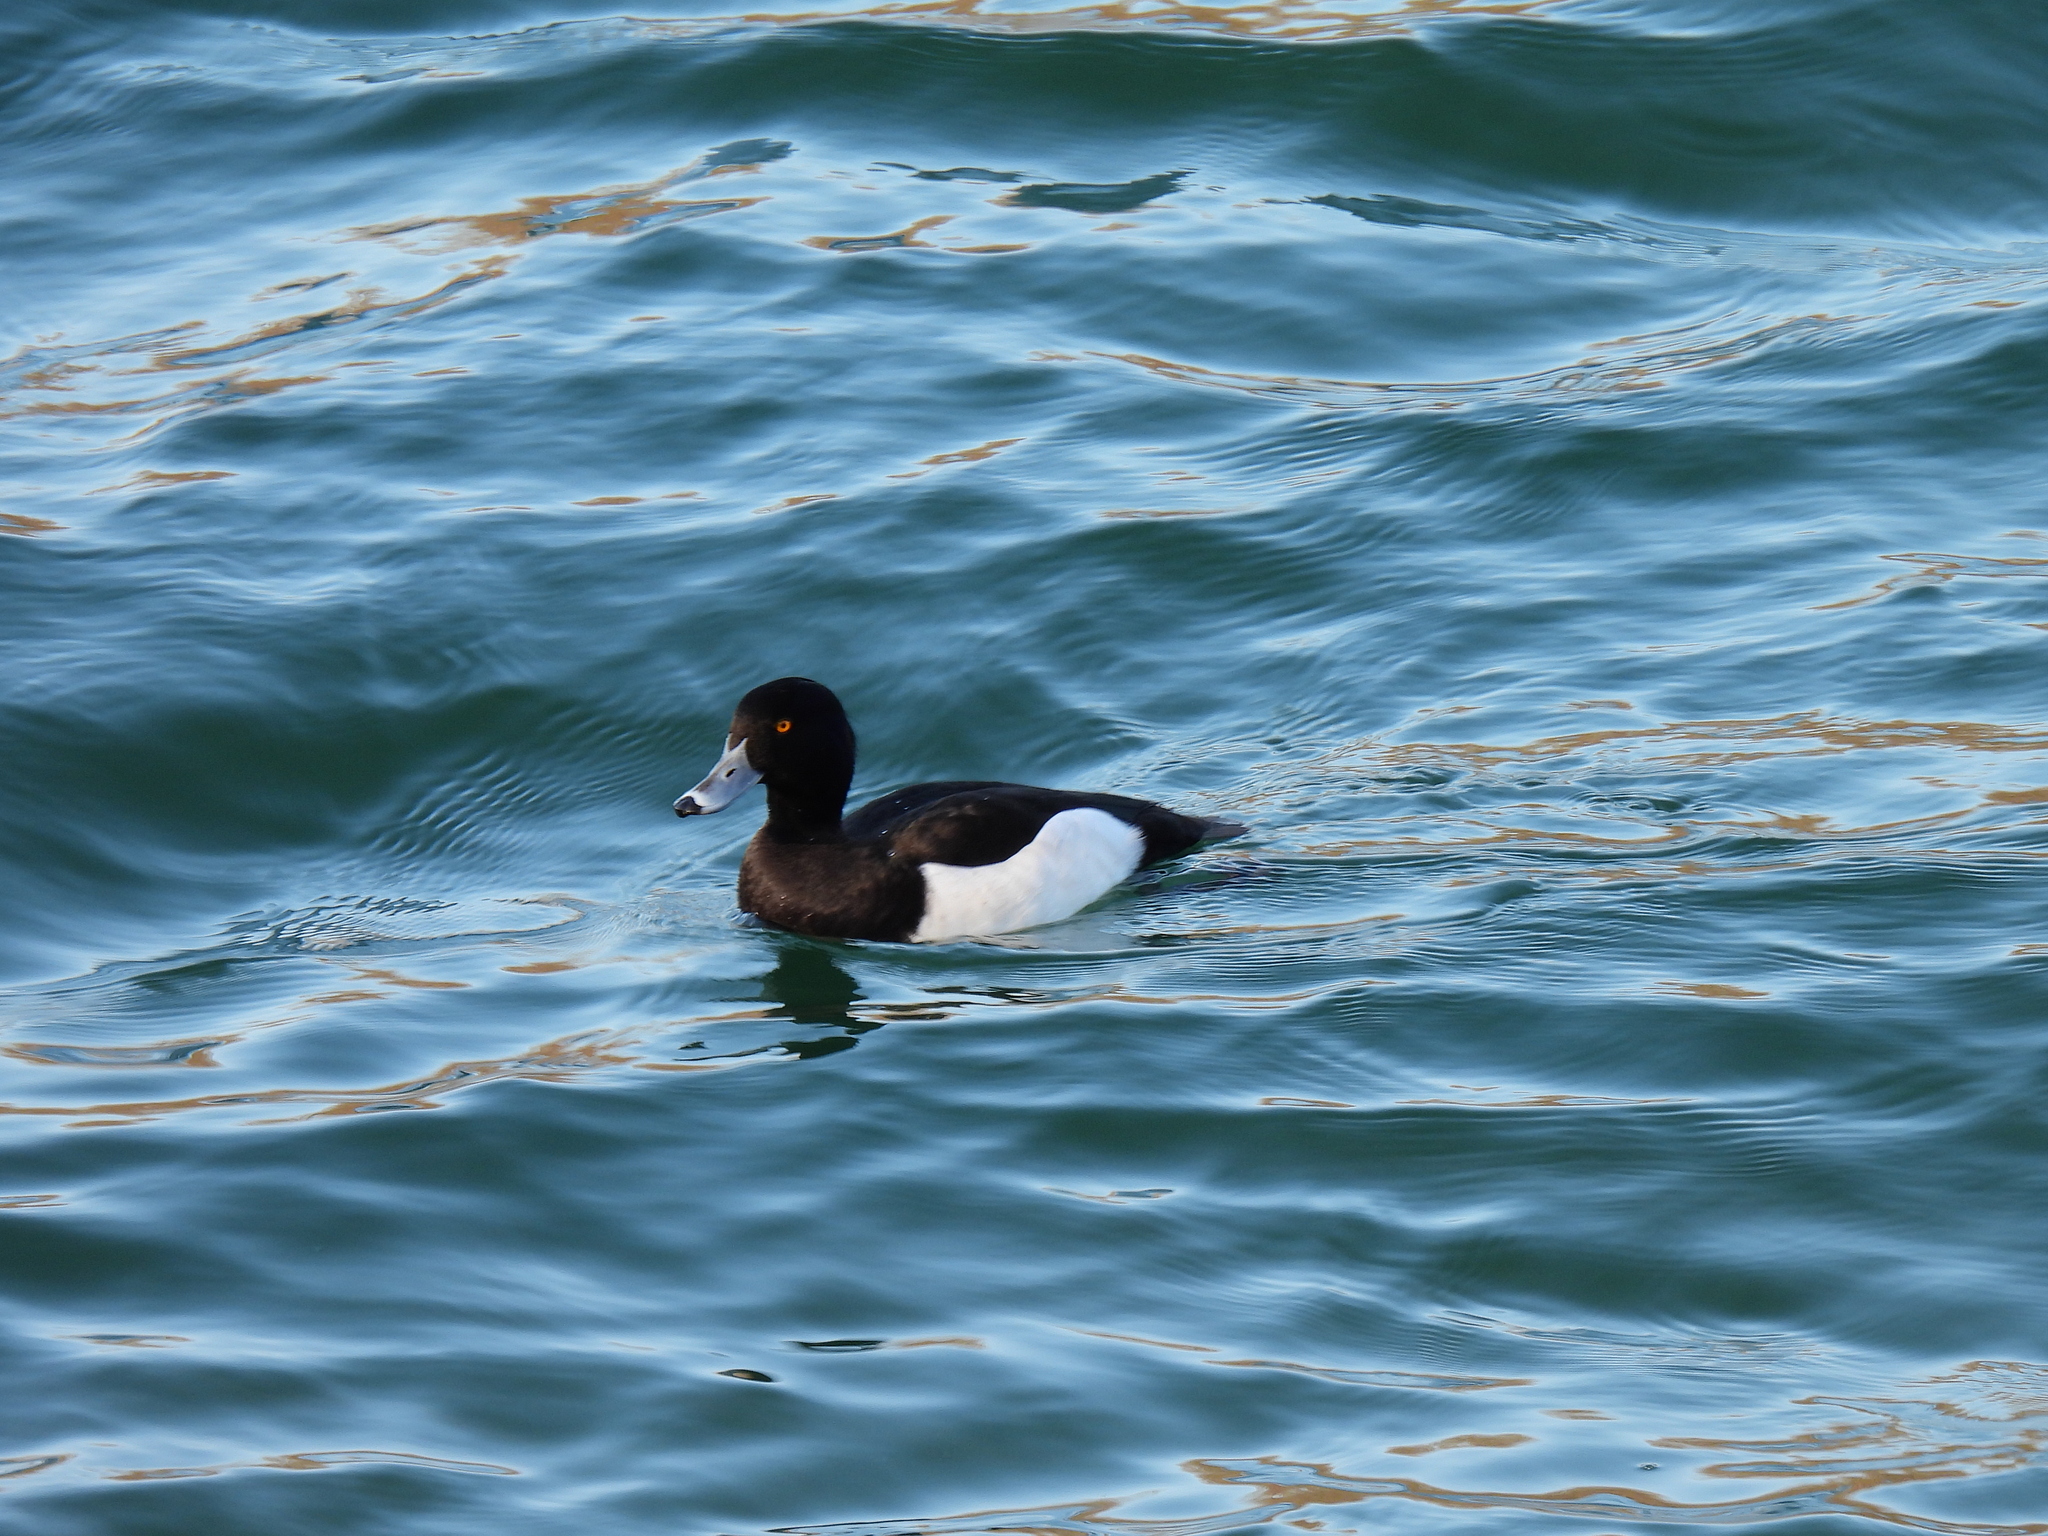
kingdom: Animalia
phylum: Chordata
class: Aves
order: Anseriformes
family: Anatidae
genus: Aythya
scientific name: Aythya fuligula
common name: Tufted duck
